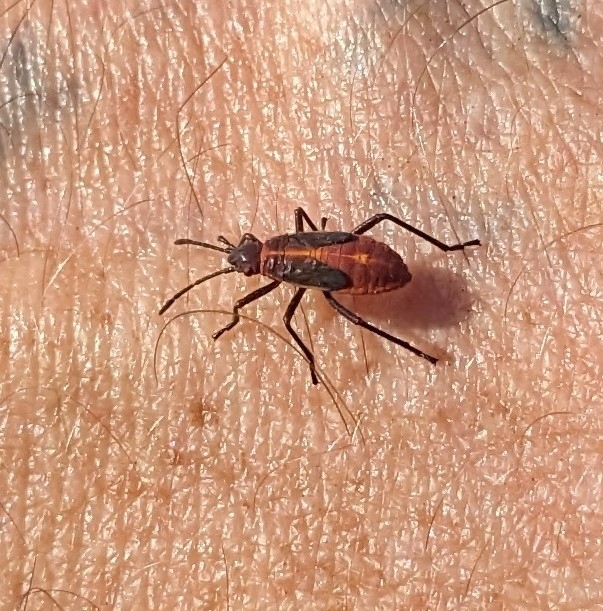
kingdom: Animalia
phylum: Arthropoda
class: Insecta
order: Hemiptera
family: Rhopalidae
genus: Boisea
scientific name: Boisea trivittata
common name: Boxelder bug
